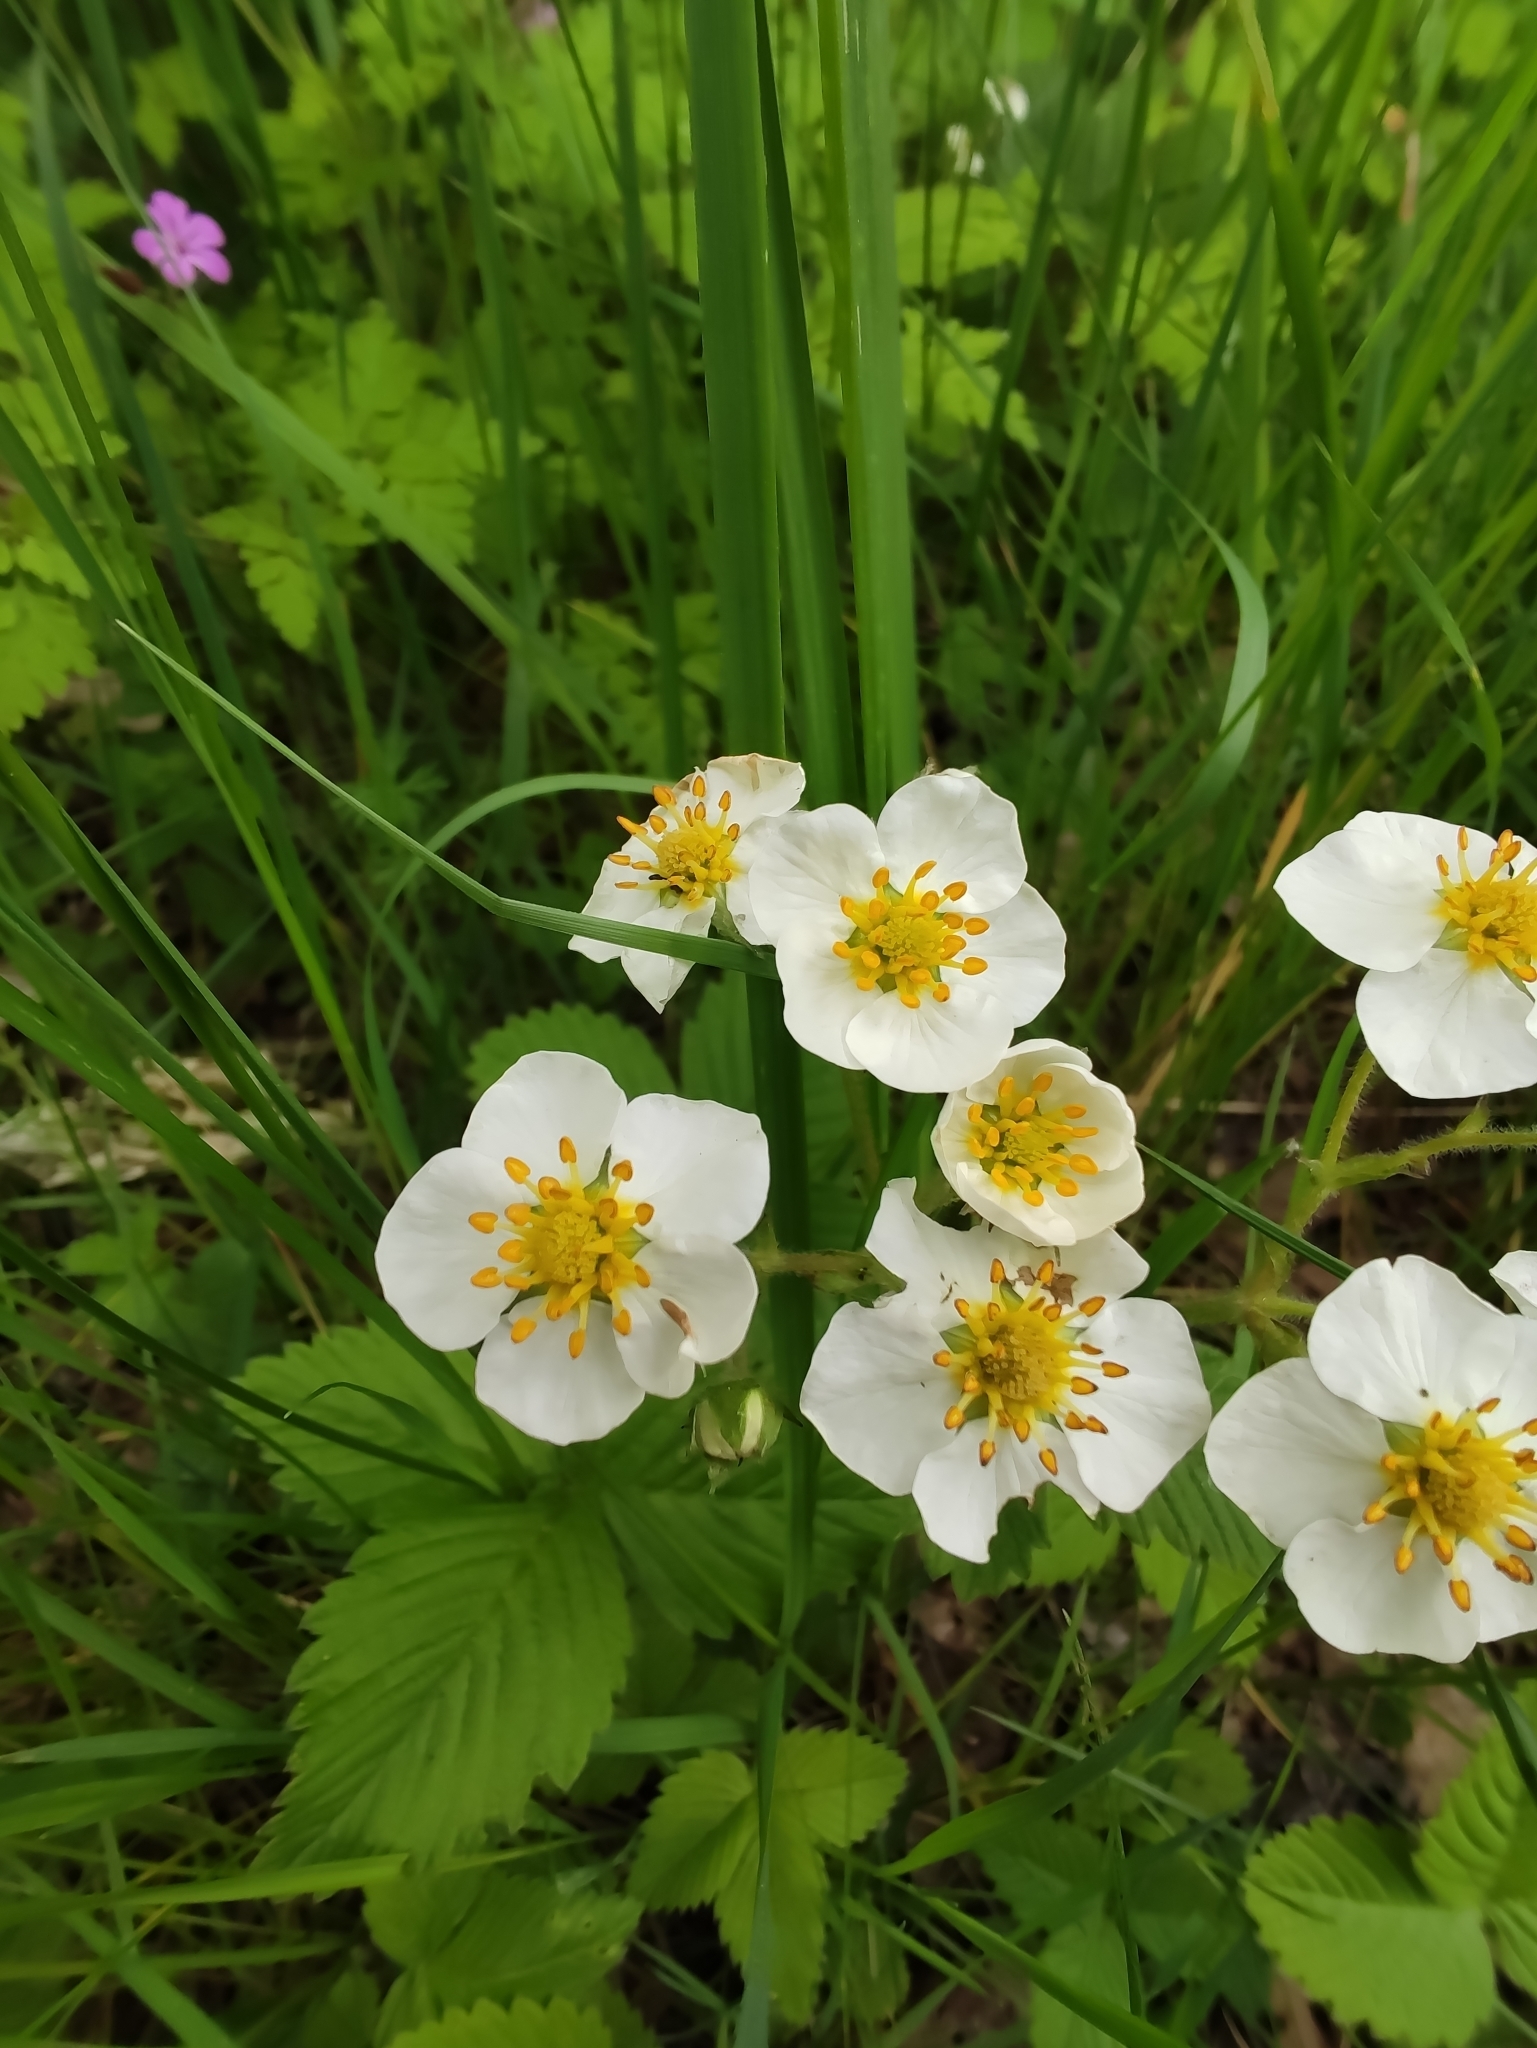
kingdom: Plantae
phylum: Tracheophyta
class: Magnoliopsida
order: Rosales
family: Rosaceae
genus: Fragaria
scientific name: Fragaria moschata
